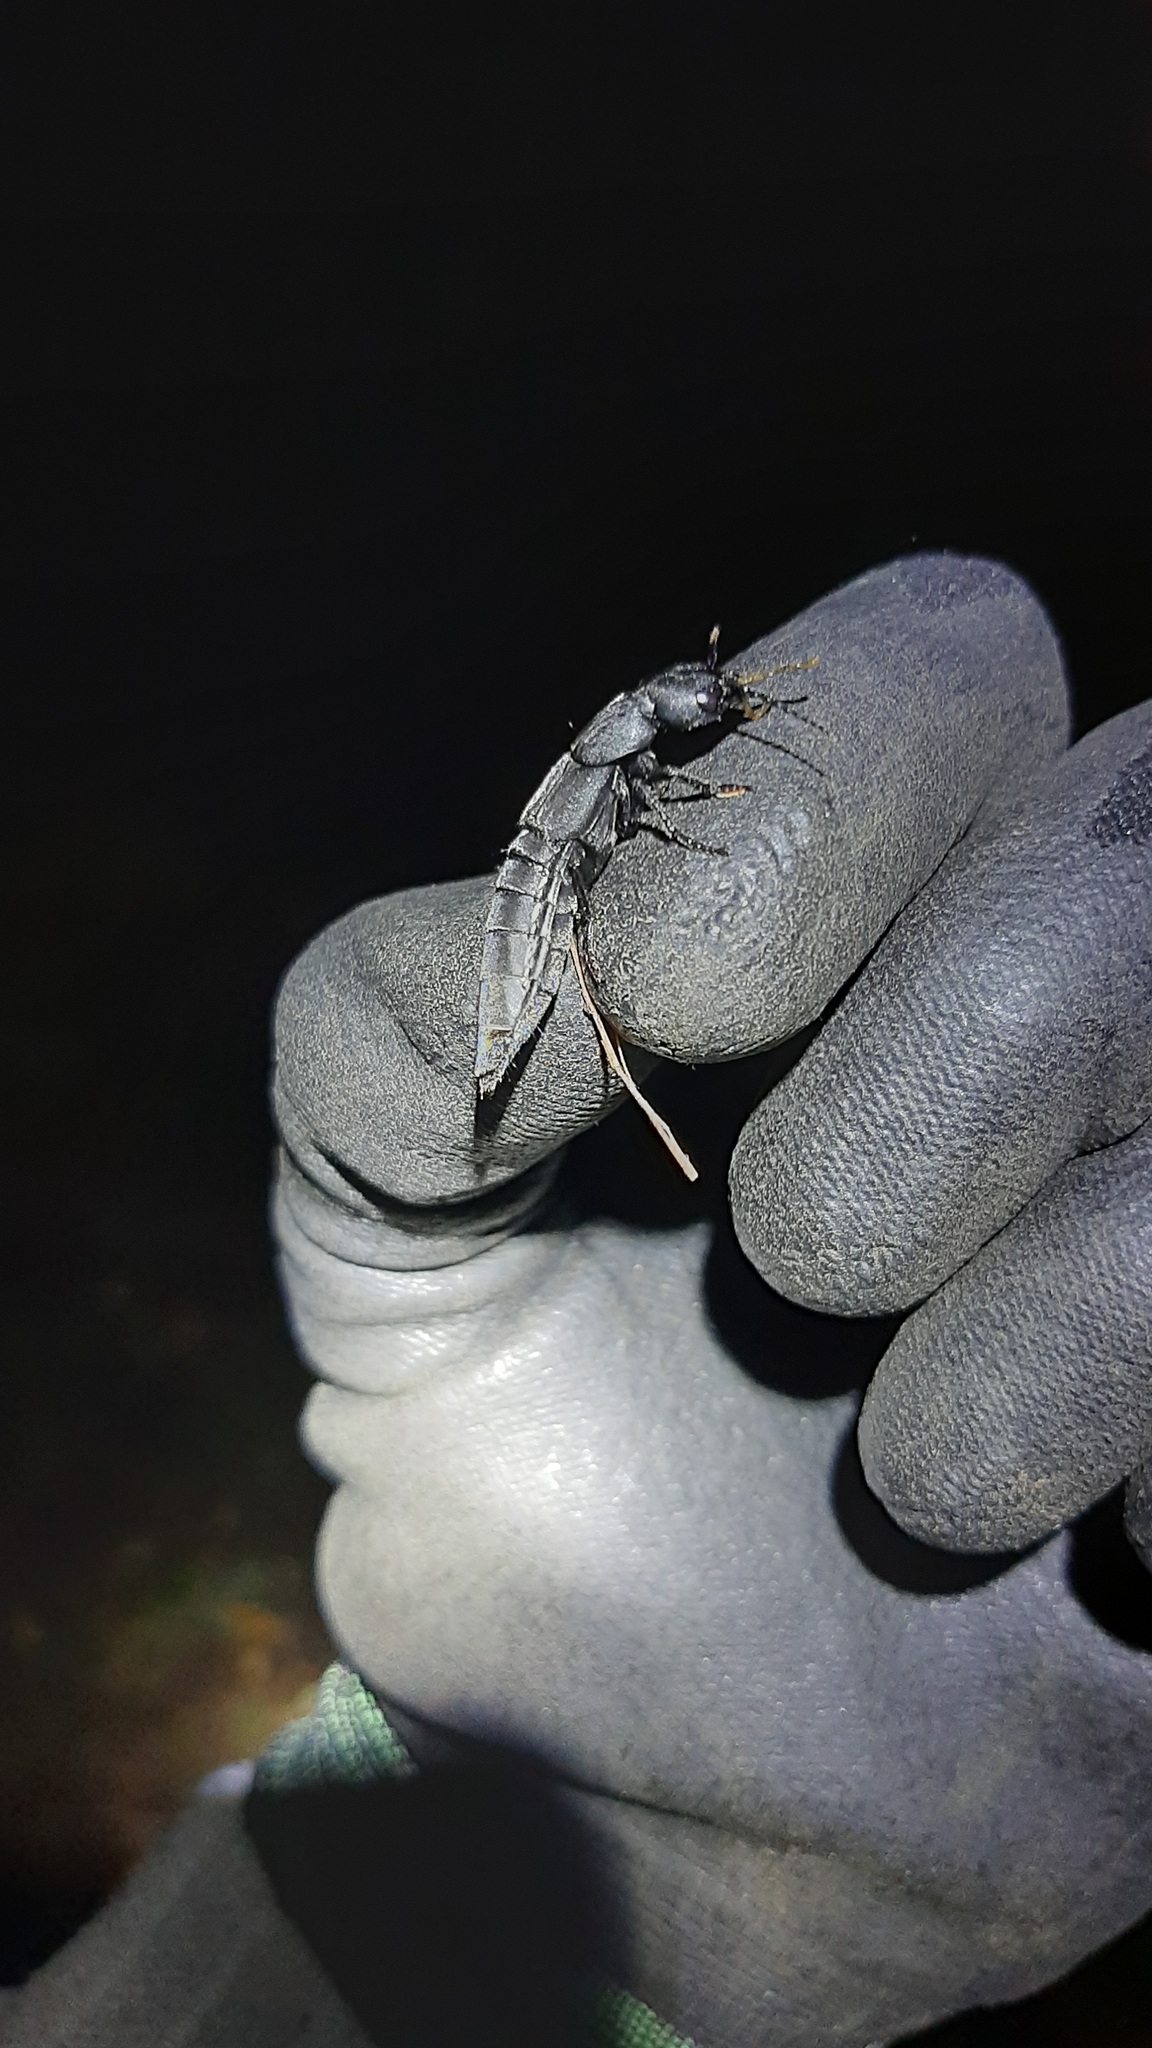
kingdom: Animalia
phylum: Arthropoda
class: Insecta
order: Coleoptera
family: Staphylinidae
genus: Ocypus
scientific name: Ocypus olens
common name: Devil's coach-horse
